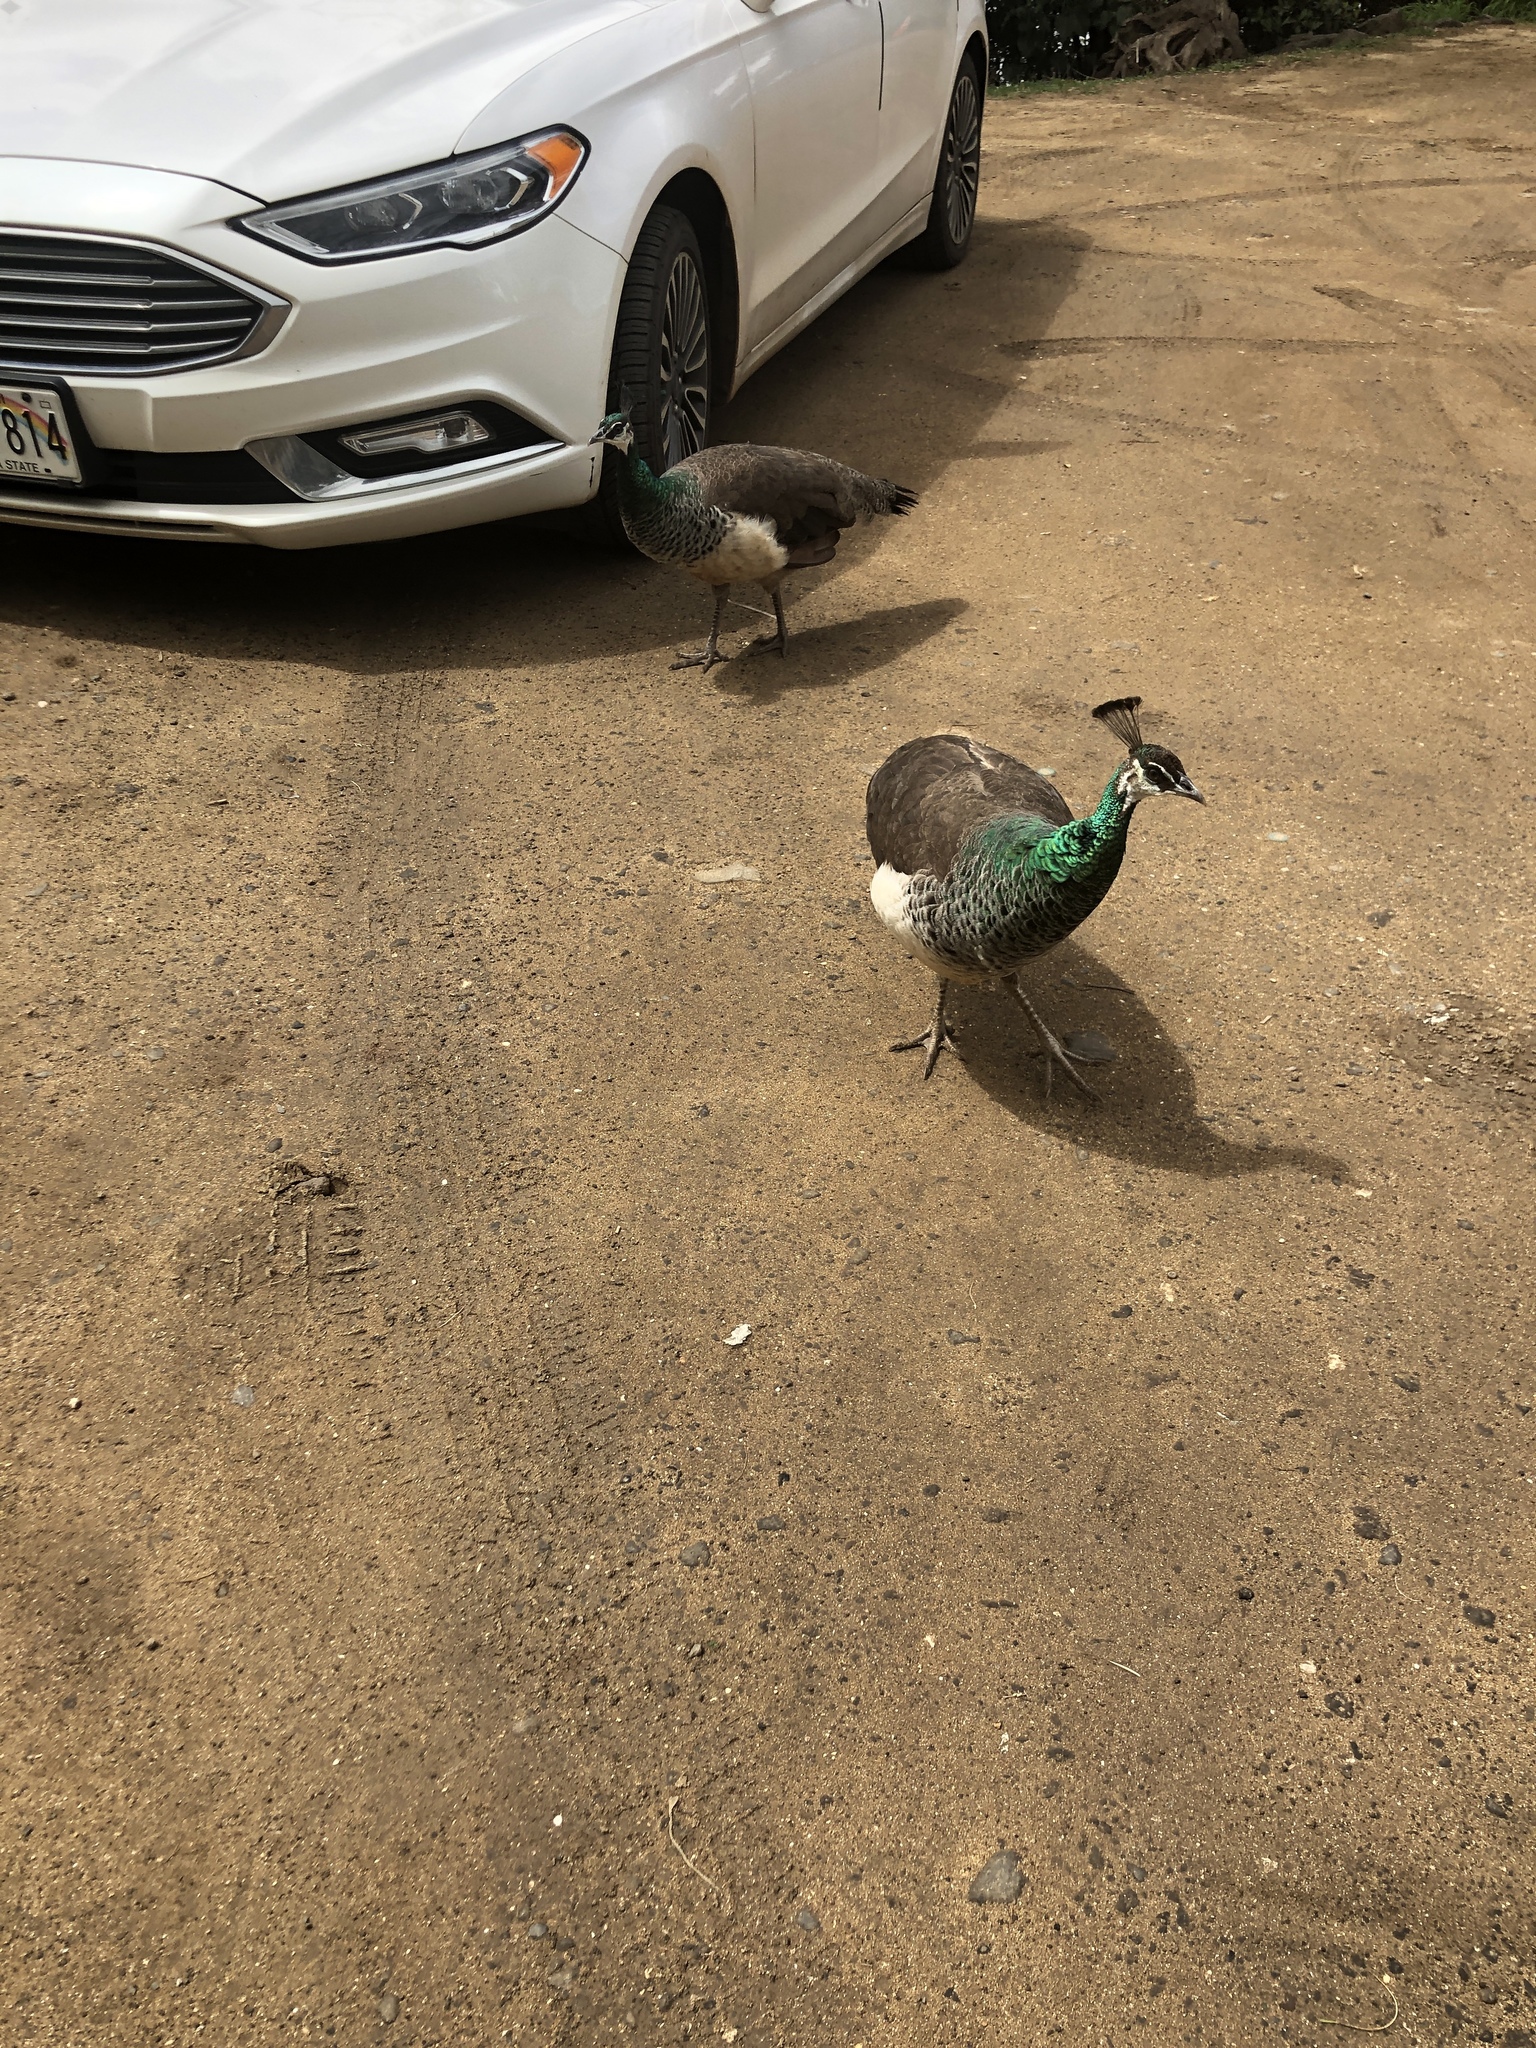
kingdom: Animalia
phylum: Chordata
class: Aves
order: Galliformes
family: Phasianidae
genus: Pavo
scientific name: Pavo cristatus
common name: Indian peafowl
